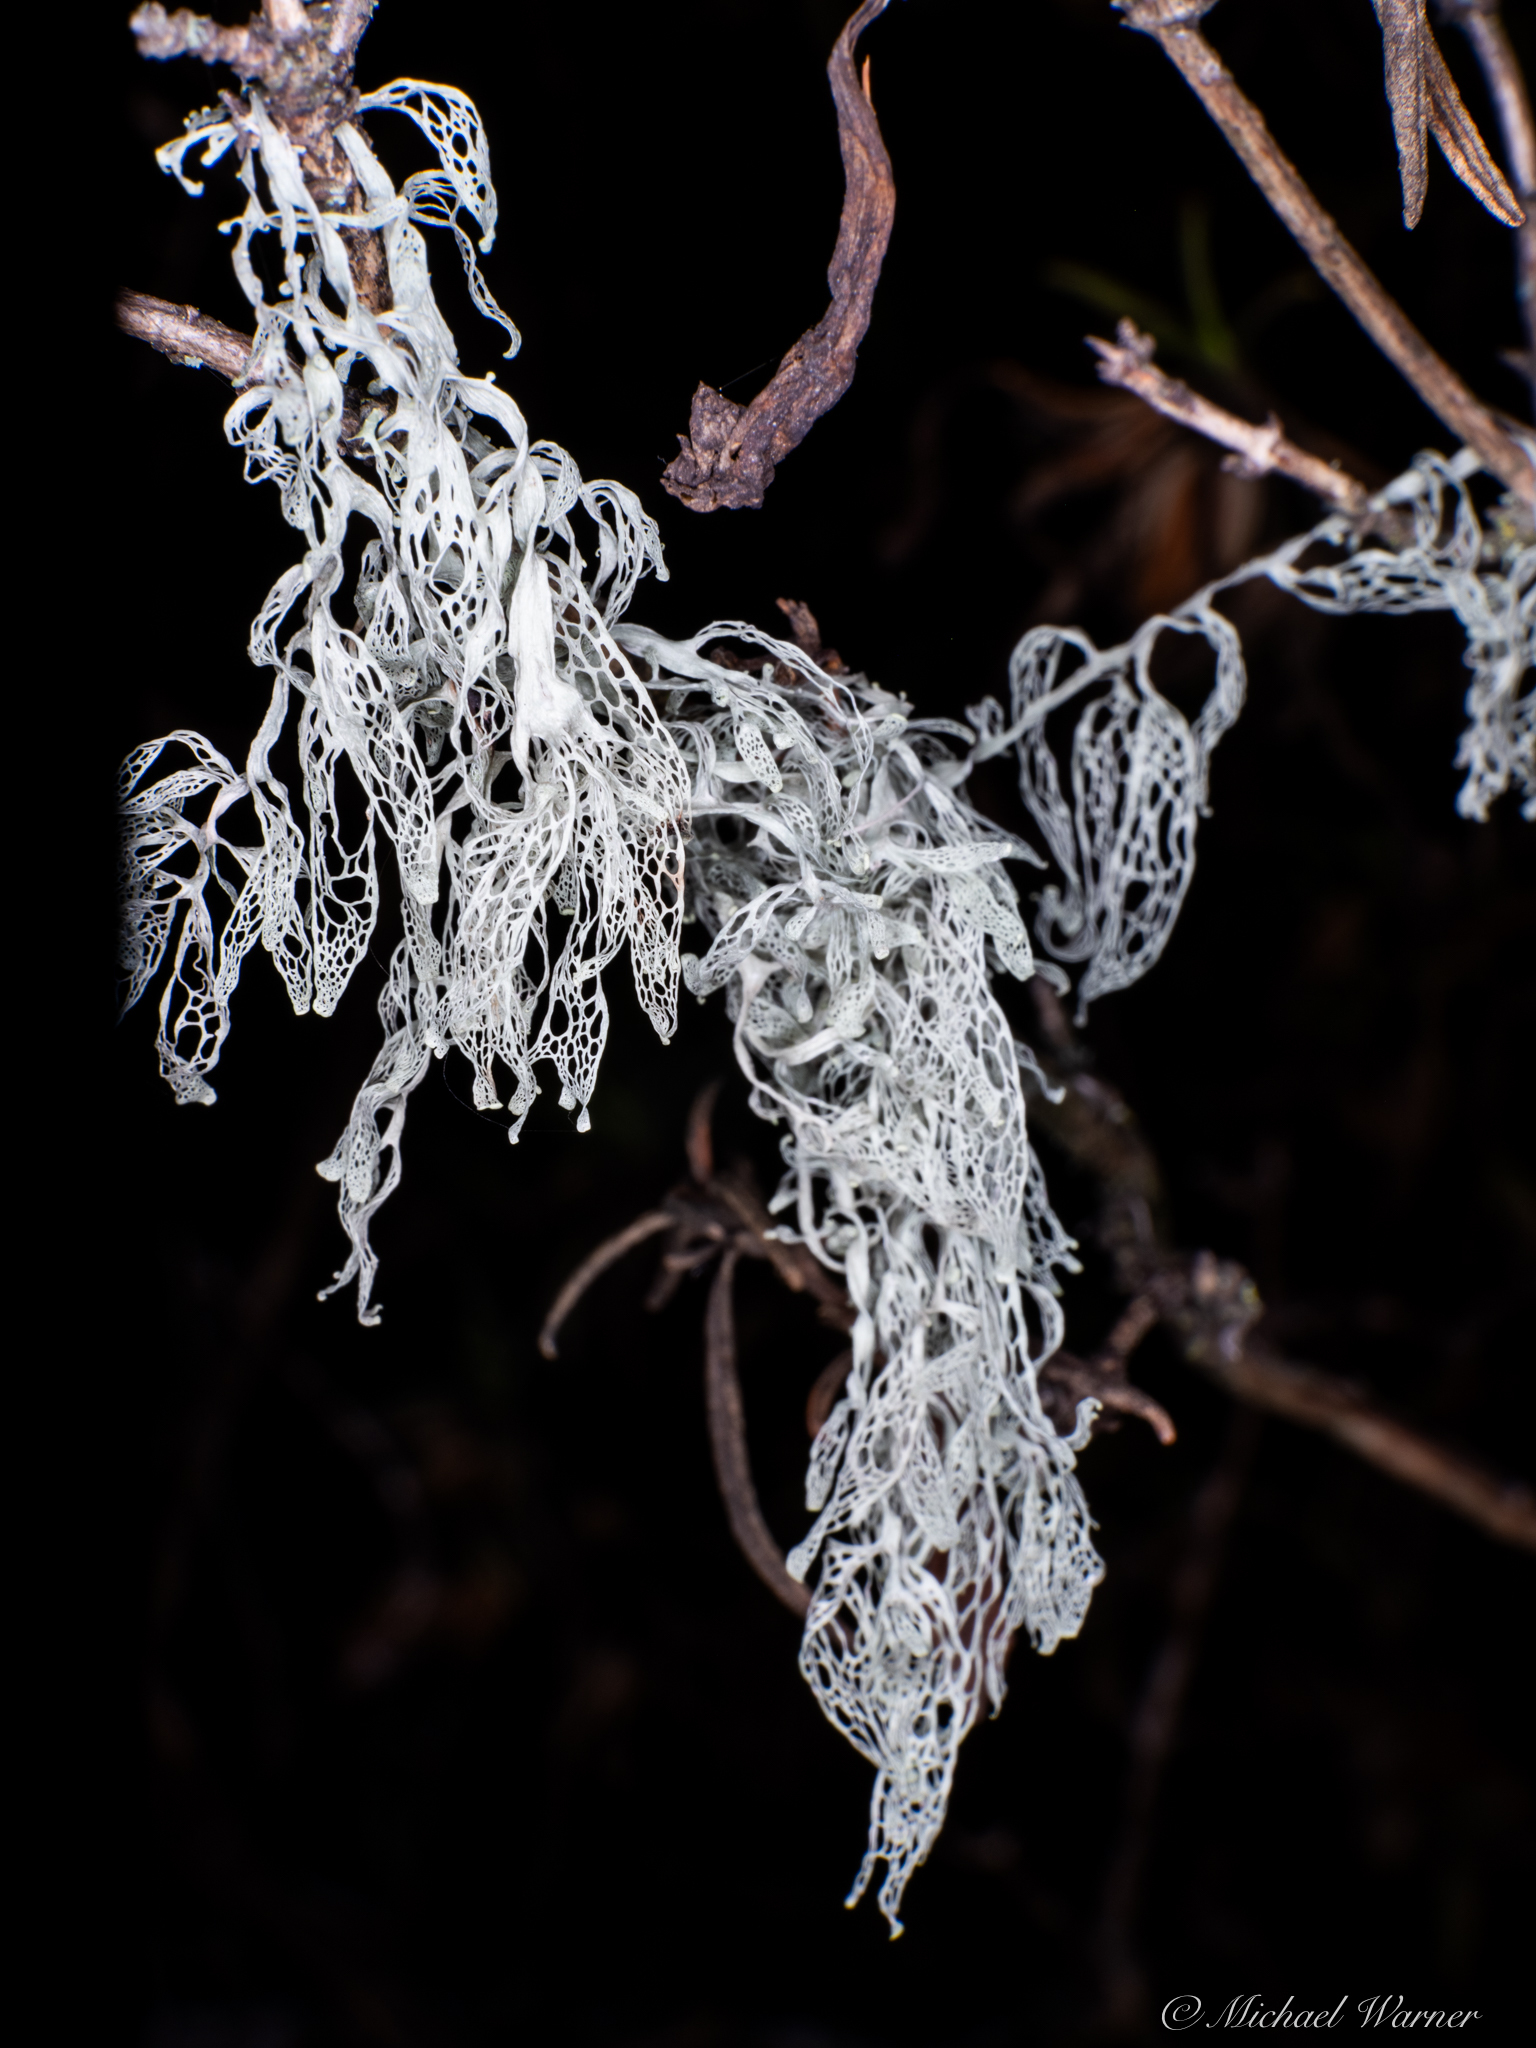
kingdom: Fungi
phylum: Ascomycota
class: Lecanoromycetes
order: Lecanorales
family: Ramalinaceae
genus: Ramalina
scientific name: Ramalina menziesii
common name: Lace lichen
